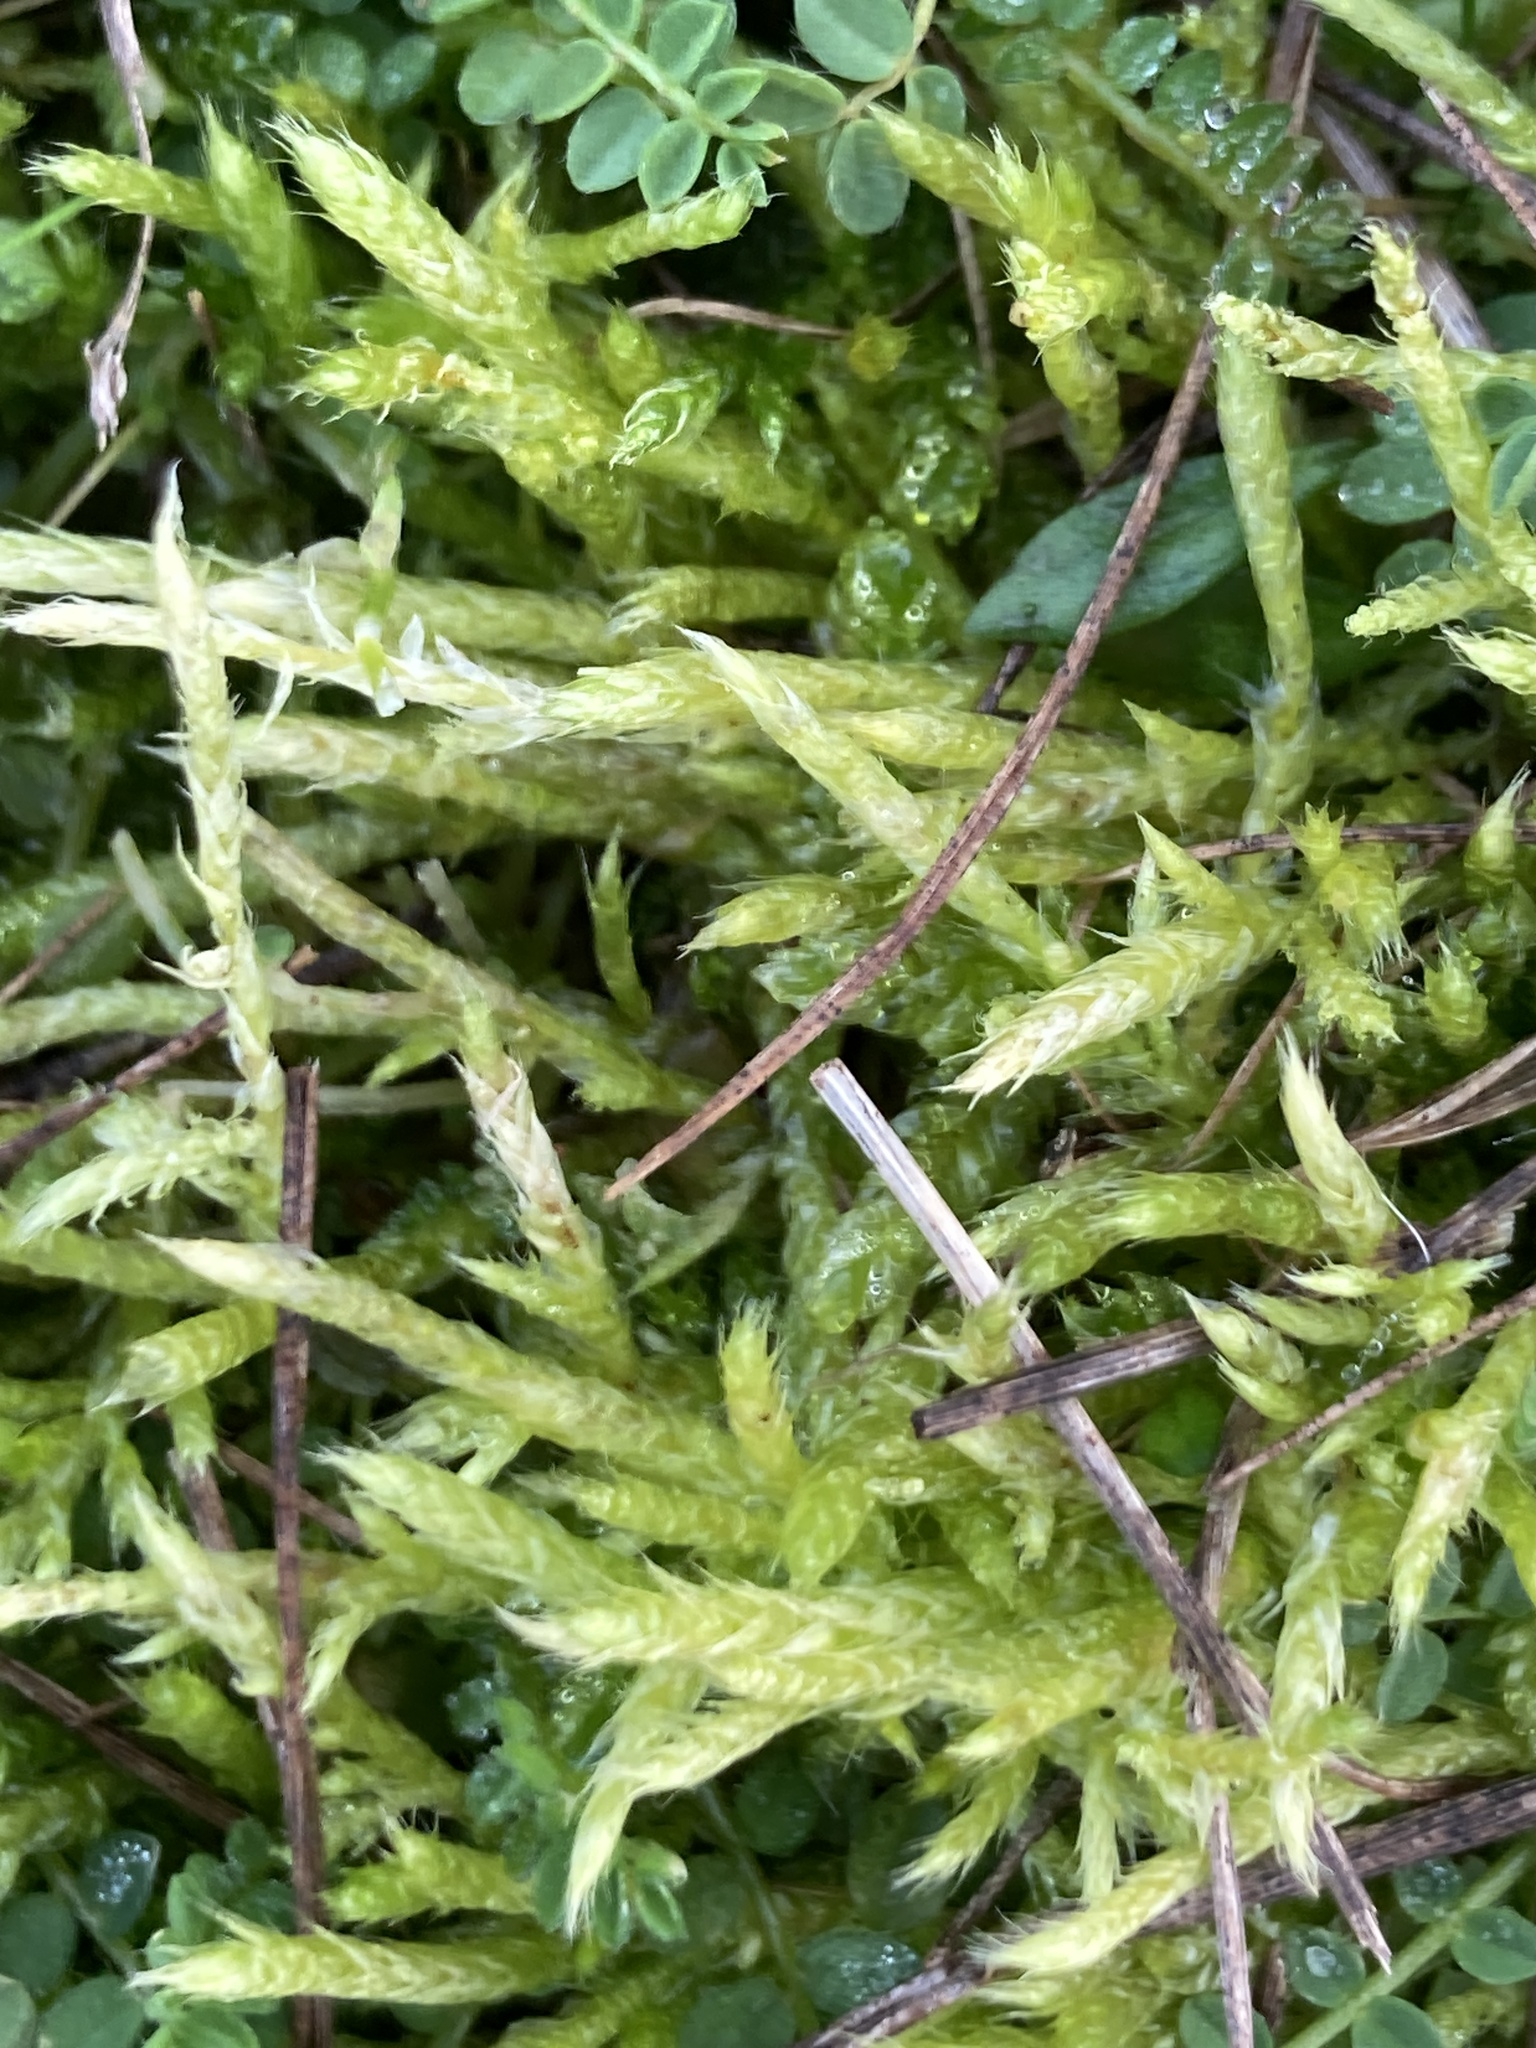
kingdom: Plantae
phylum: Bryophyta
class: Bryopsida
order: Hypnales
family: Brachytheciaceae
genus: Brachythecium
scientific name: Brachythecium albicans
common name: Whitish ragged moss
